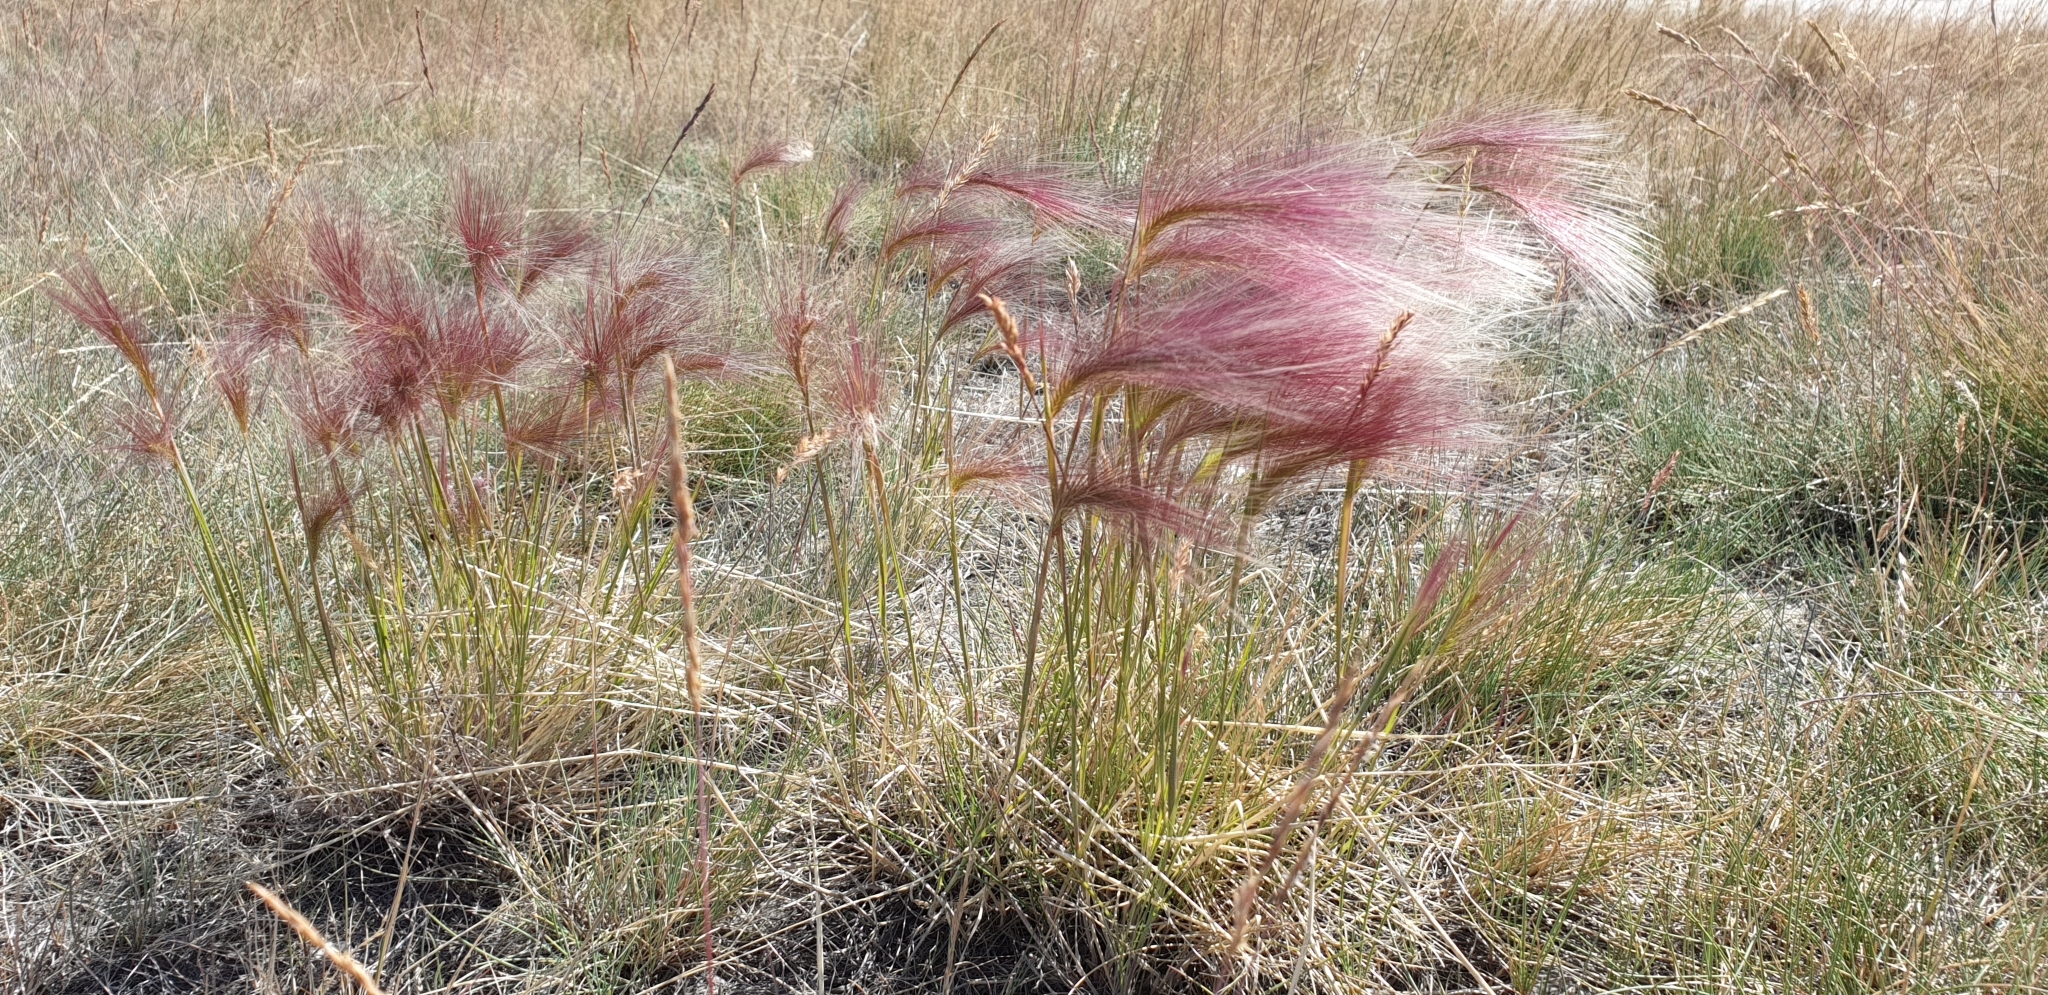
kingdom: Plantae
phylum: Tracheophyta
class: Liliopsida
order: Poales
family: Poaceae
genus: Hordeum
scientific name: Hordeum jubatum
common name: Foxtail barley
